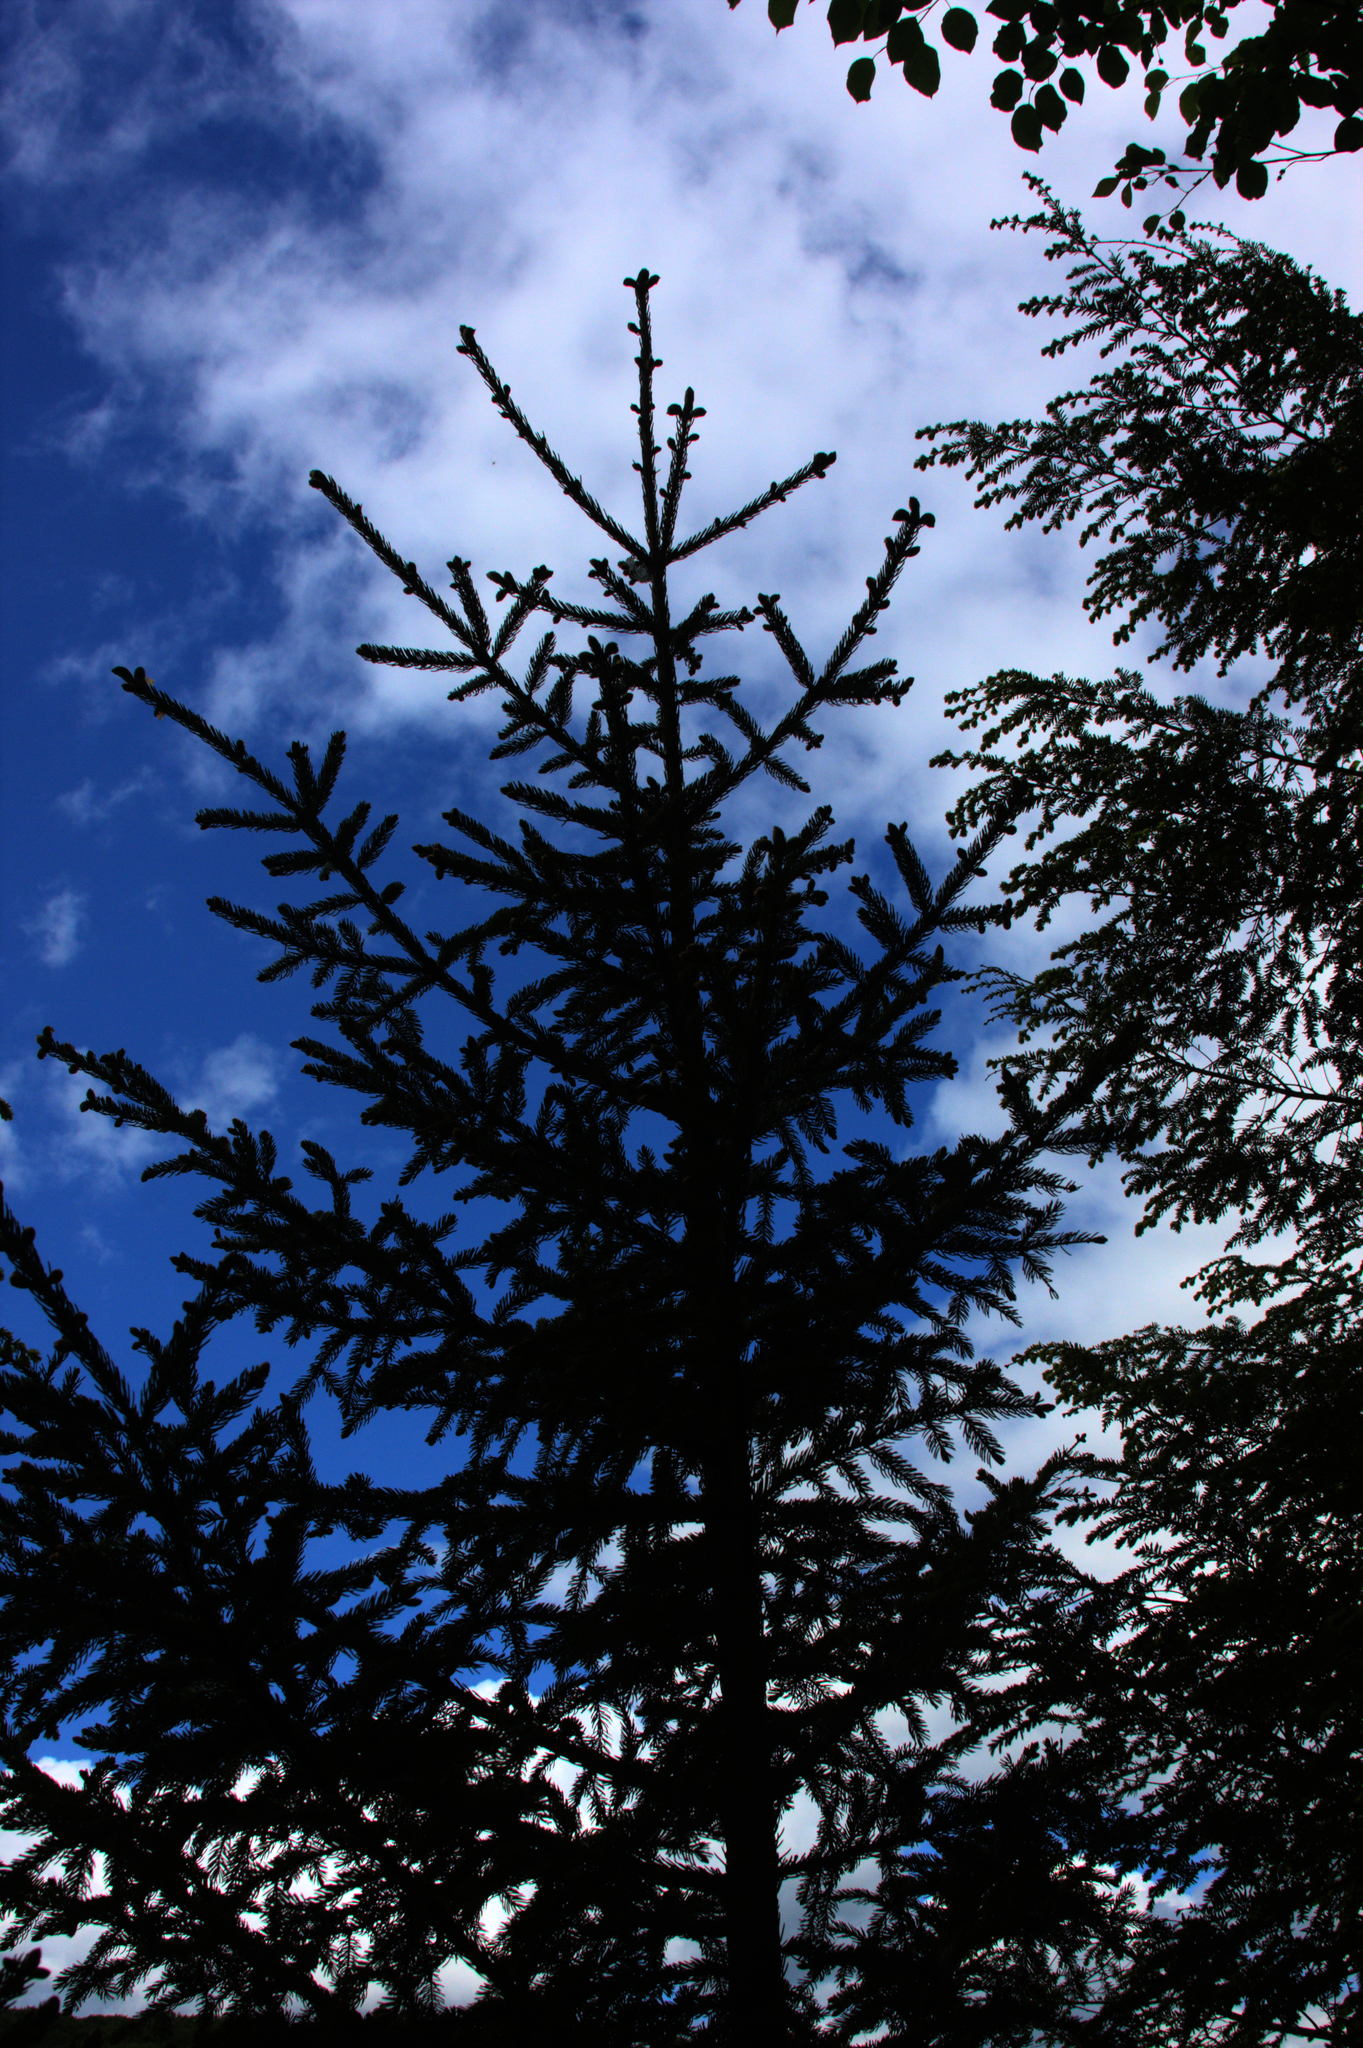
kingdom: Plantae
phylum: Tracheophyta
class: Pinopsida
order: Pinales
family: Pinaceae
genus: Picea
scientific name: Picea rubens
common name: Red spruce
